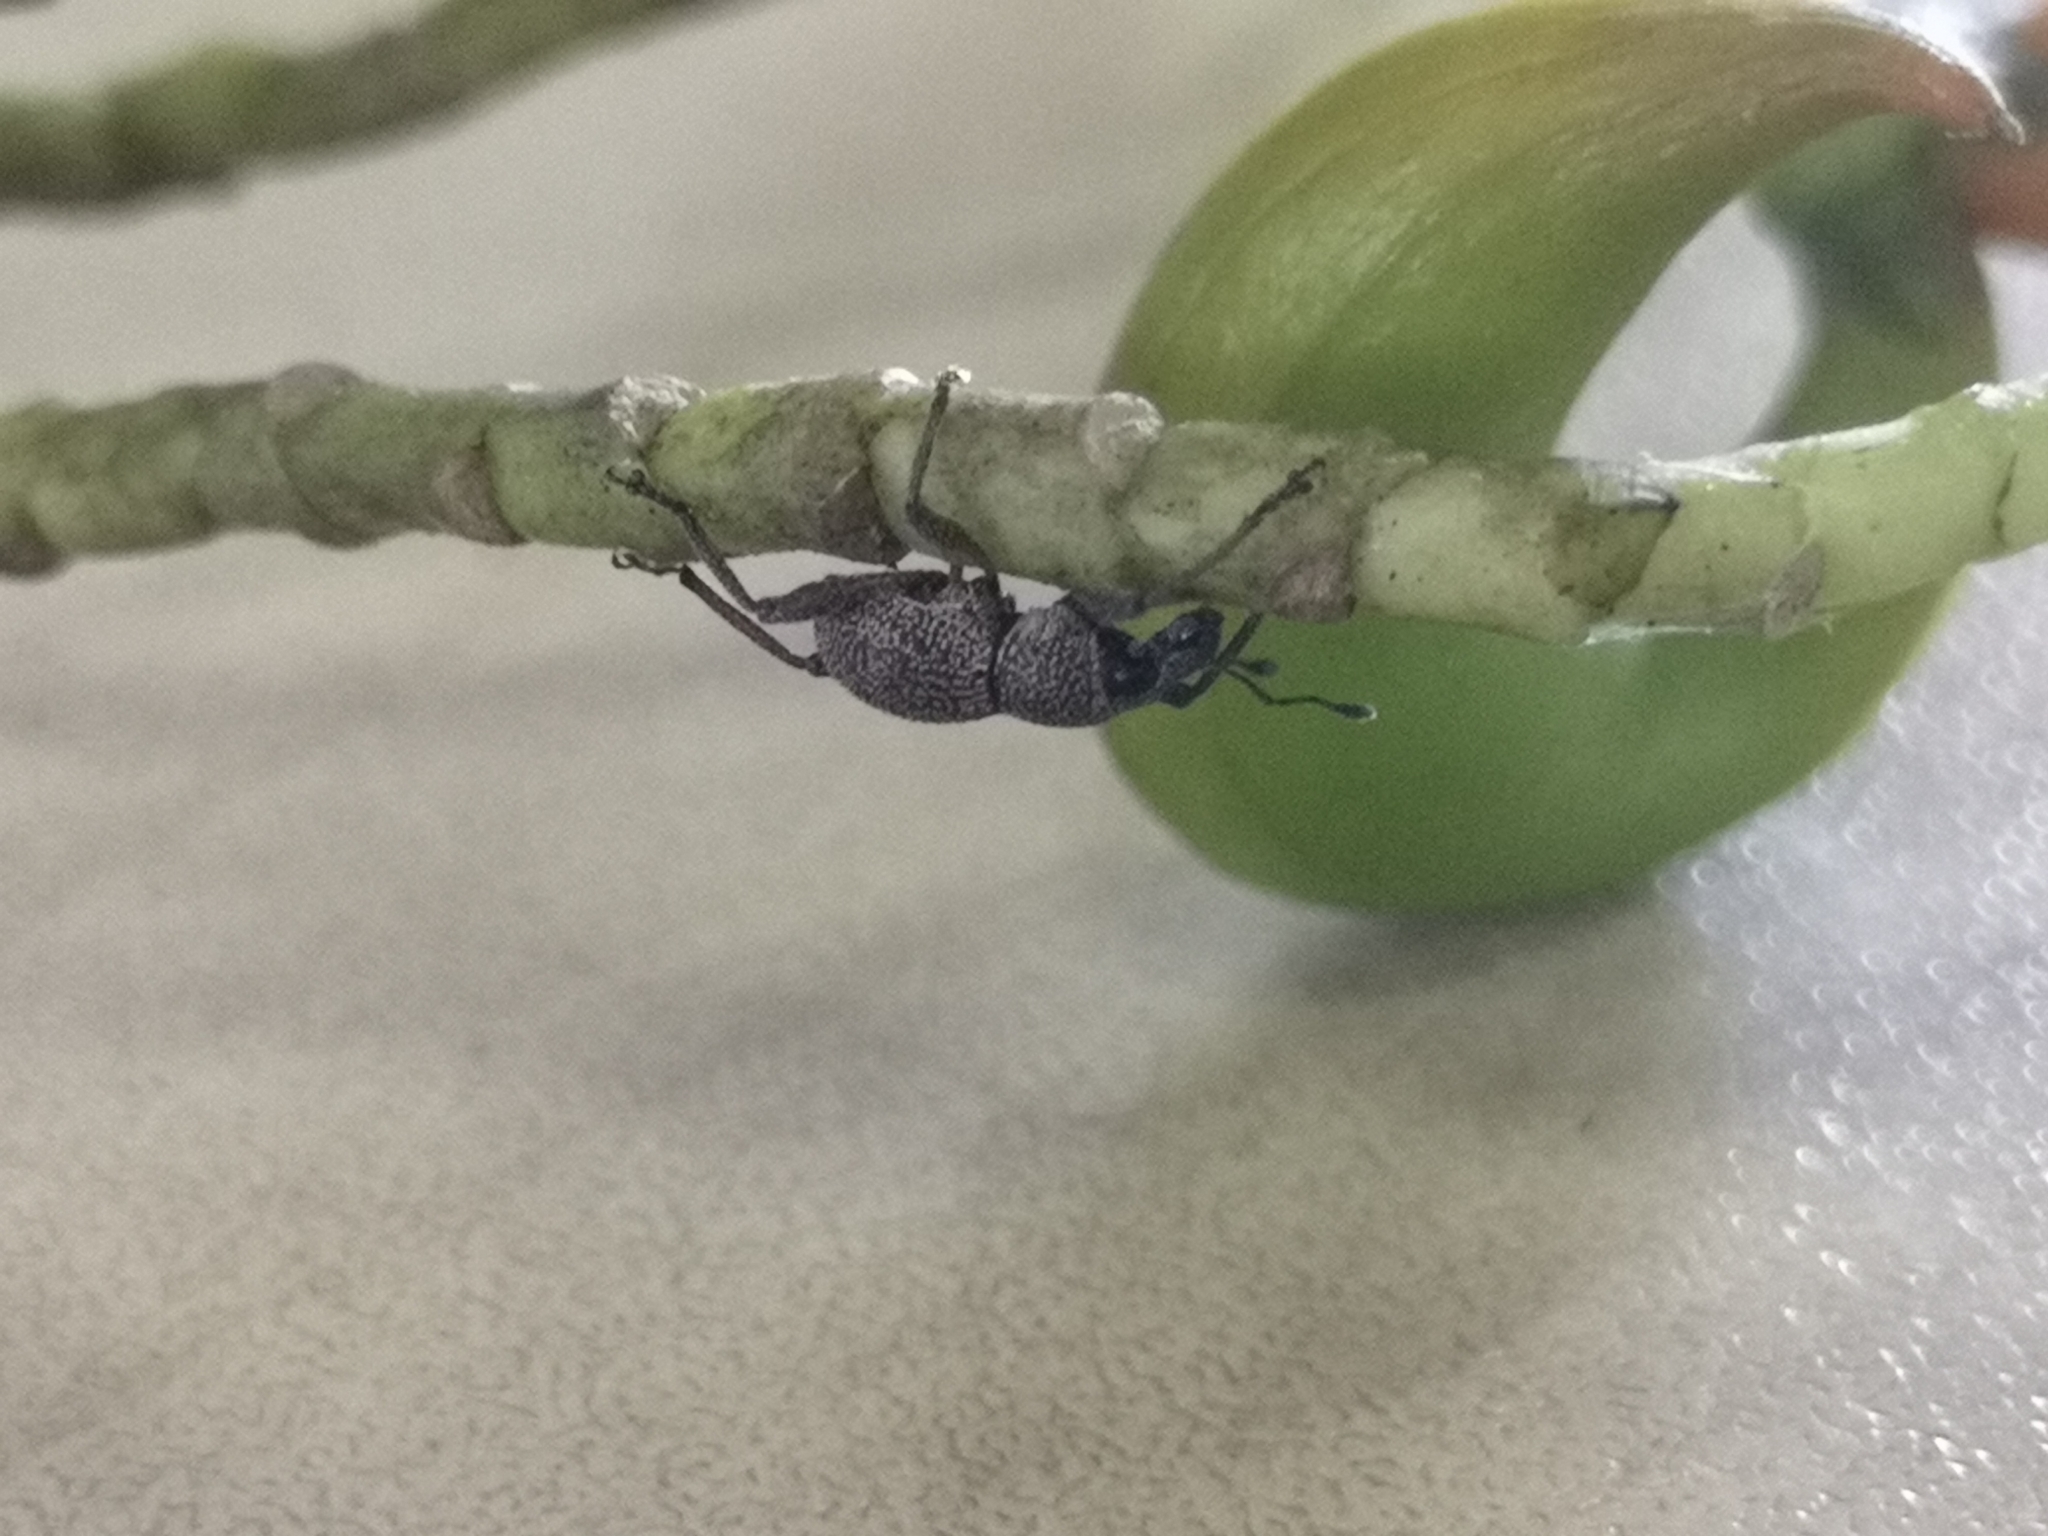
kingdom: Animalia
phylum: Arthropoda
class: Insecta
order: Coleoptera
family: Curculionidae
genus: Metapocyrtus
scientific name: Metapocyrtus adspersus
